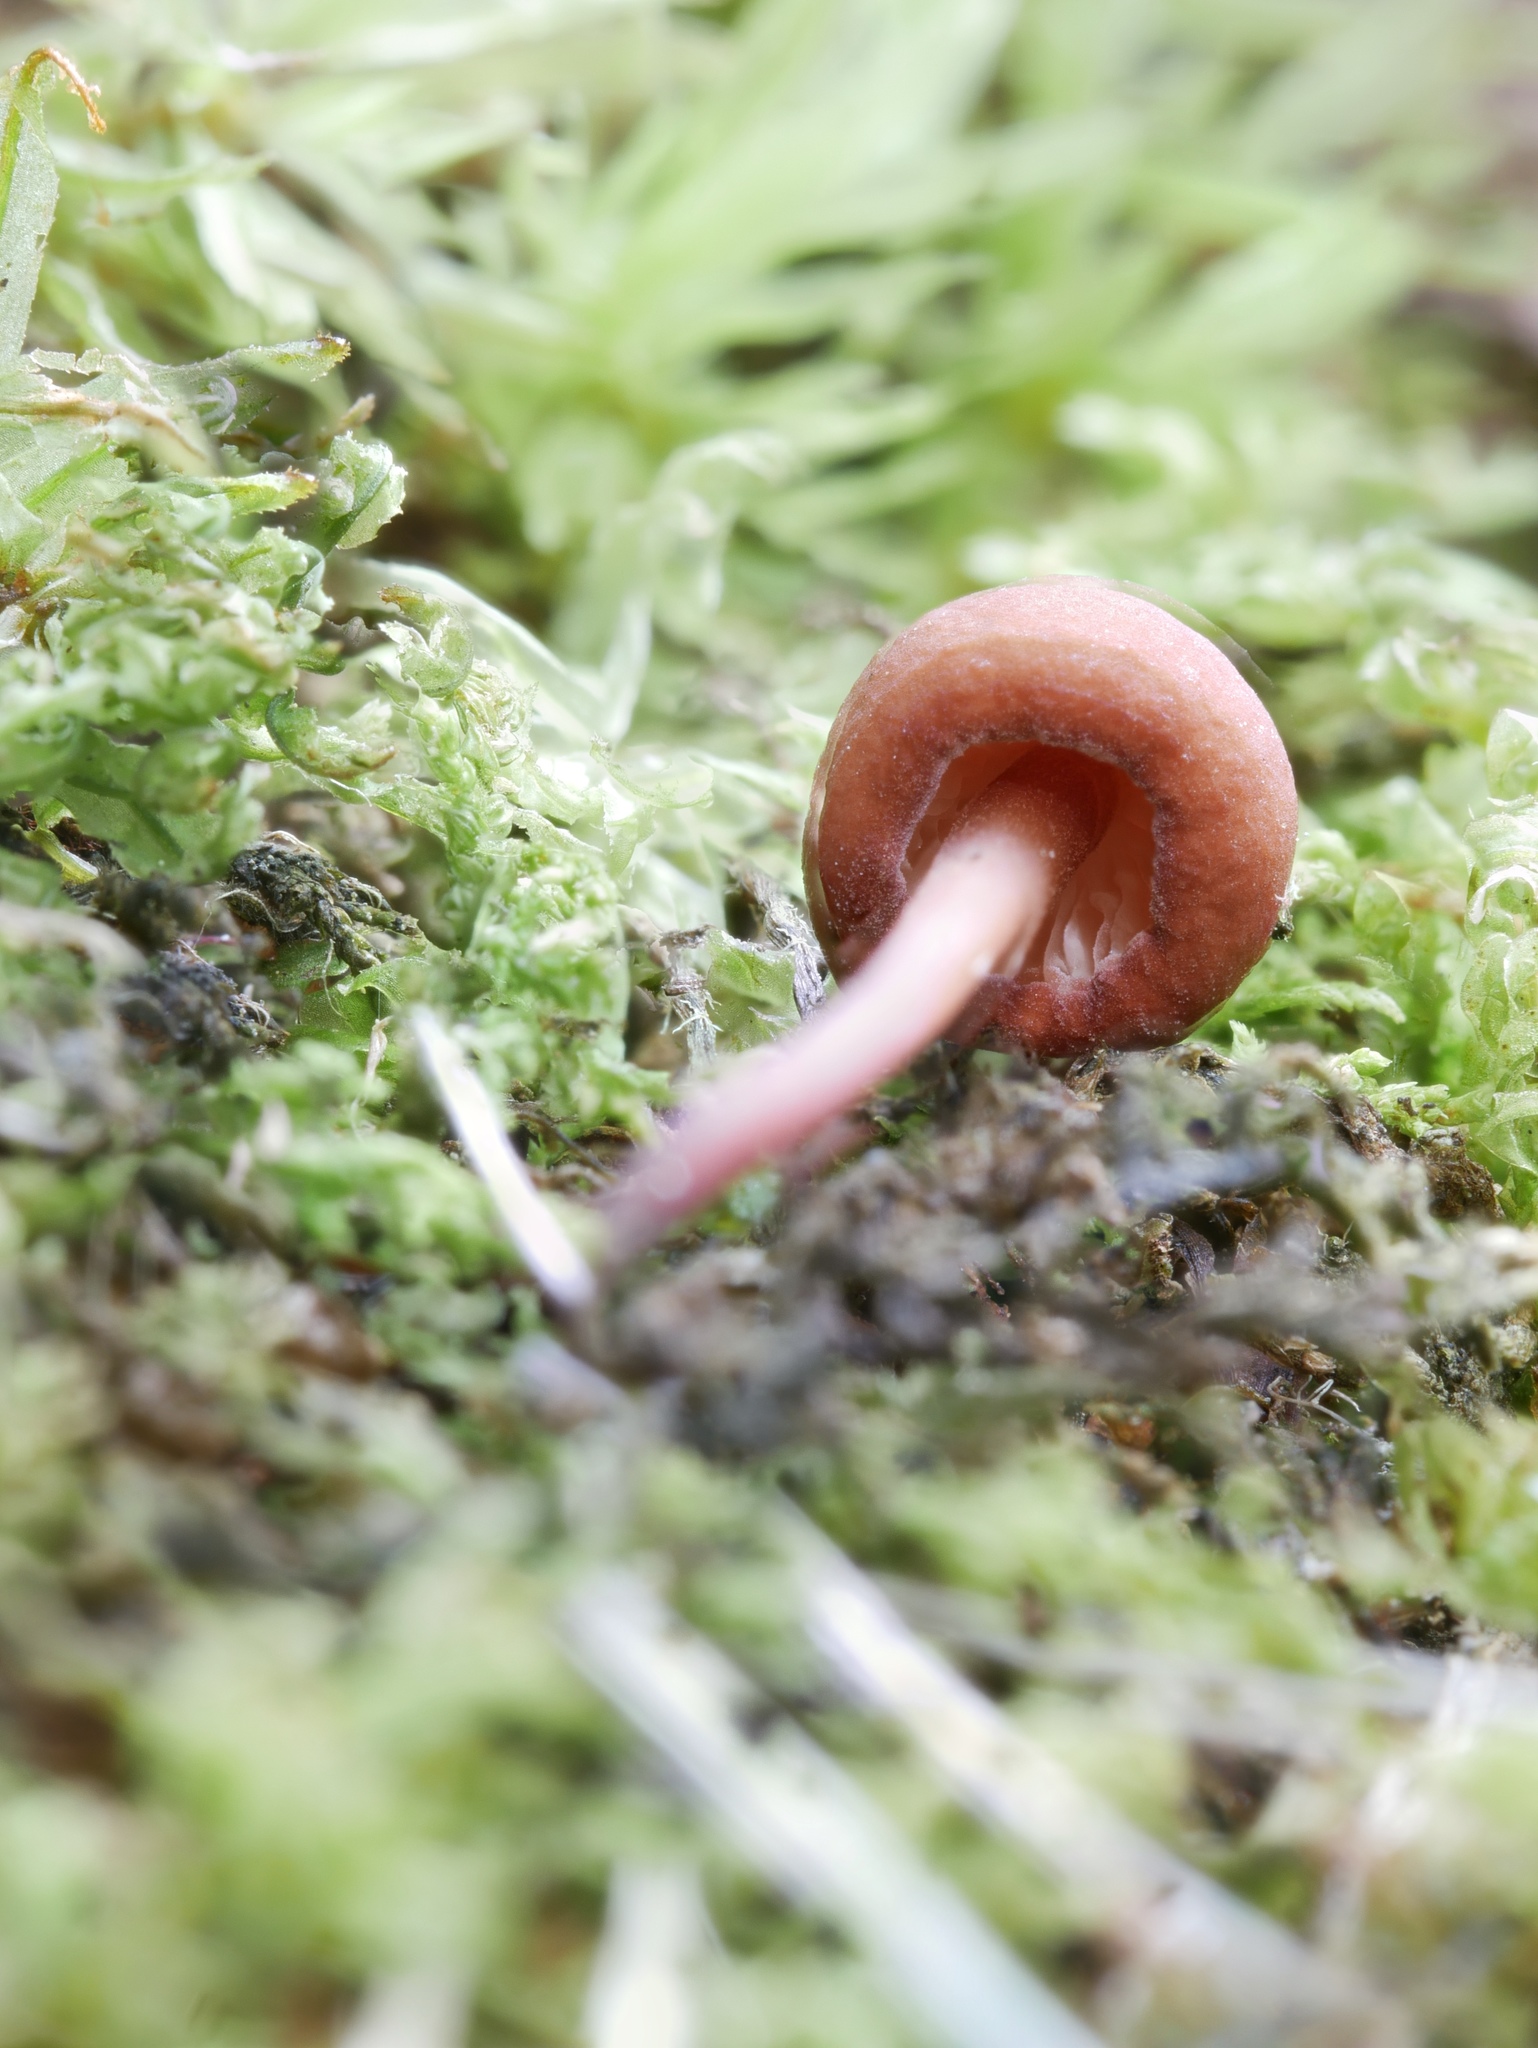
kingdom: Fungi
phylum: Basidiomycota
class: Agaricomycetes
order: Agaricales
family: Omphalotaceae
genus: Mycetinis
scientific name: Mycetinis scorodonius
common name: Vampires bane
